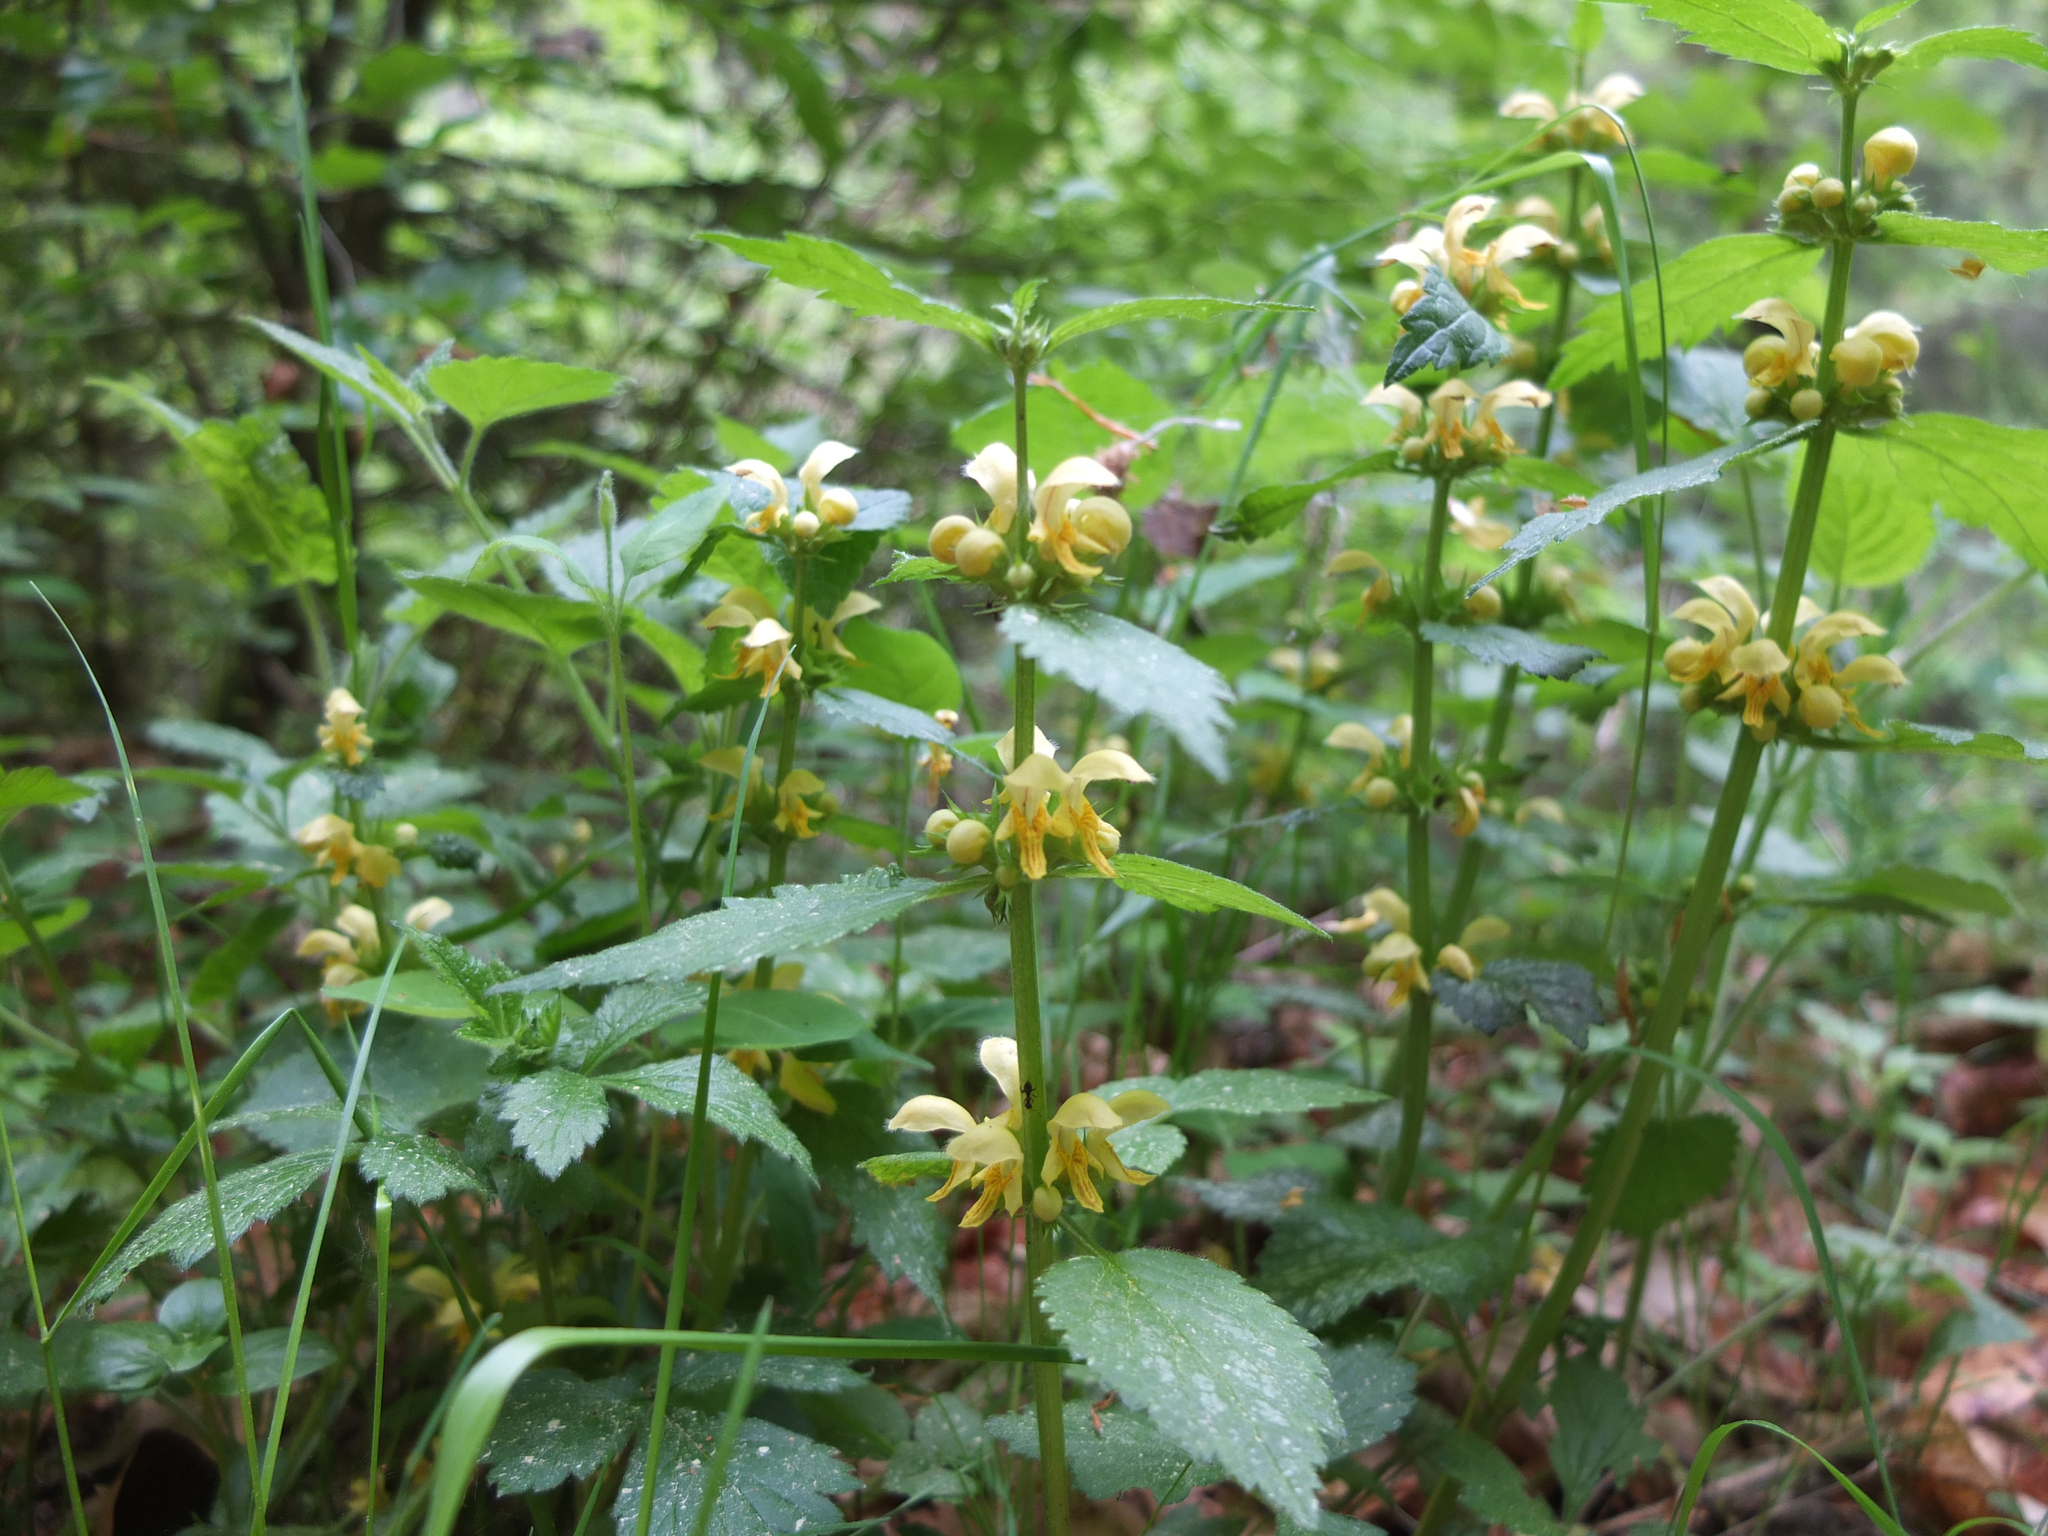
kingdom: Plantae
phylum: Tracheophyta
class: Magnoliopsida
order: Lamiales
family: Lamiaceae
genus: Lamium
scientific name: Lamium galeobdolon
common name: Yellow archangel
